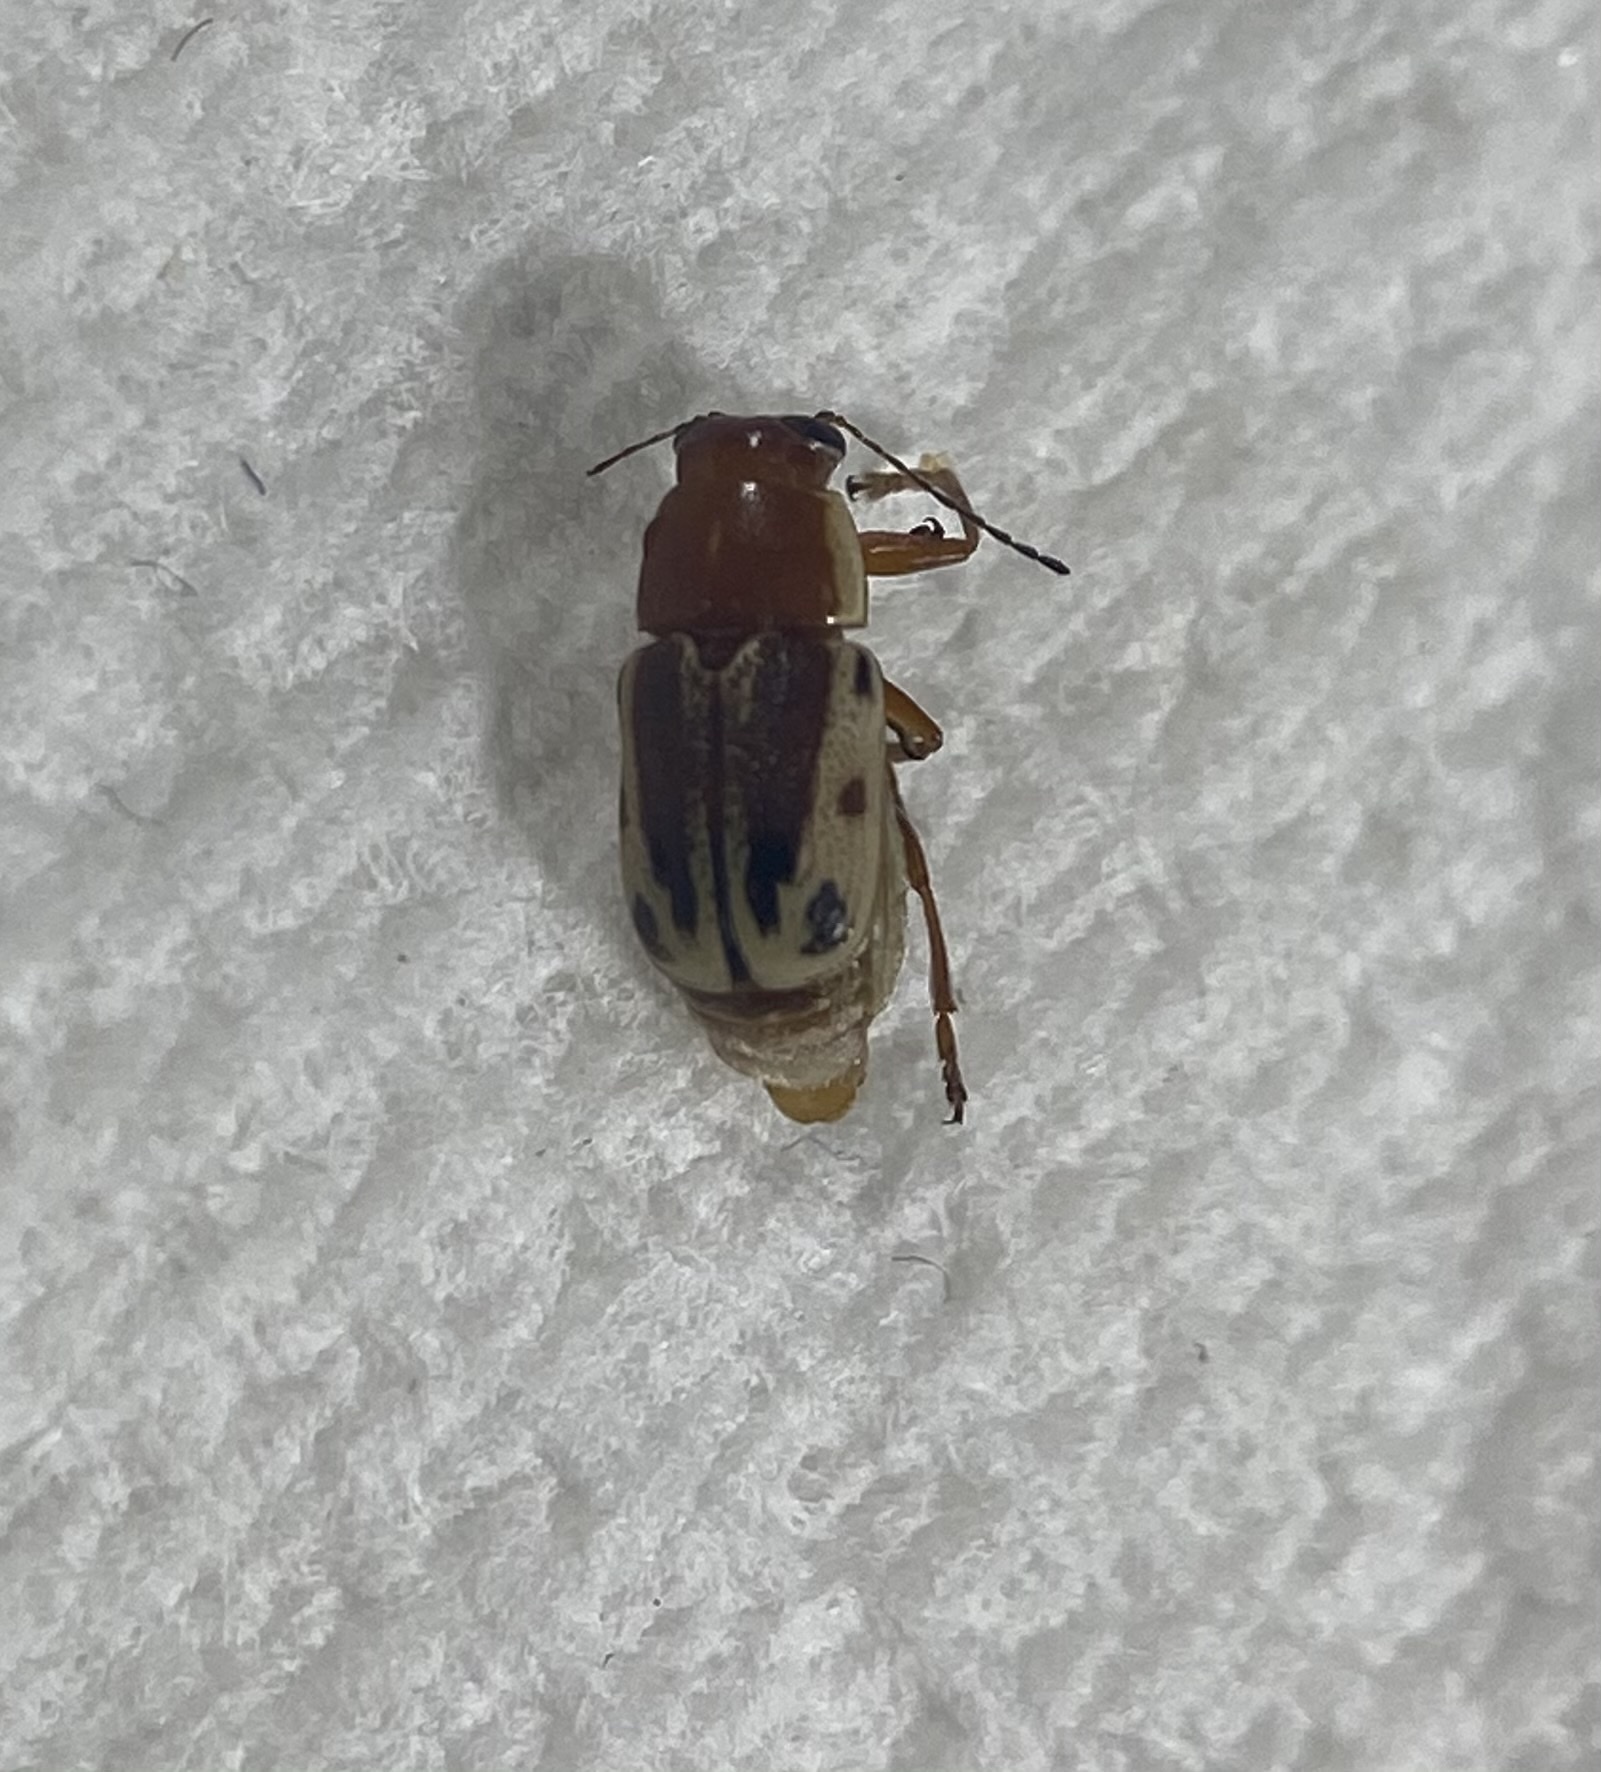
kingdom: Animalia
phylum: Arthropoda
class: Insecta
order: Coleoptera
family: Chrysomelidae
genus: Pachybrachis
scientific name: Pachybrachis bivittatus
